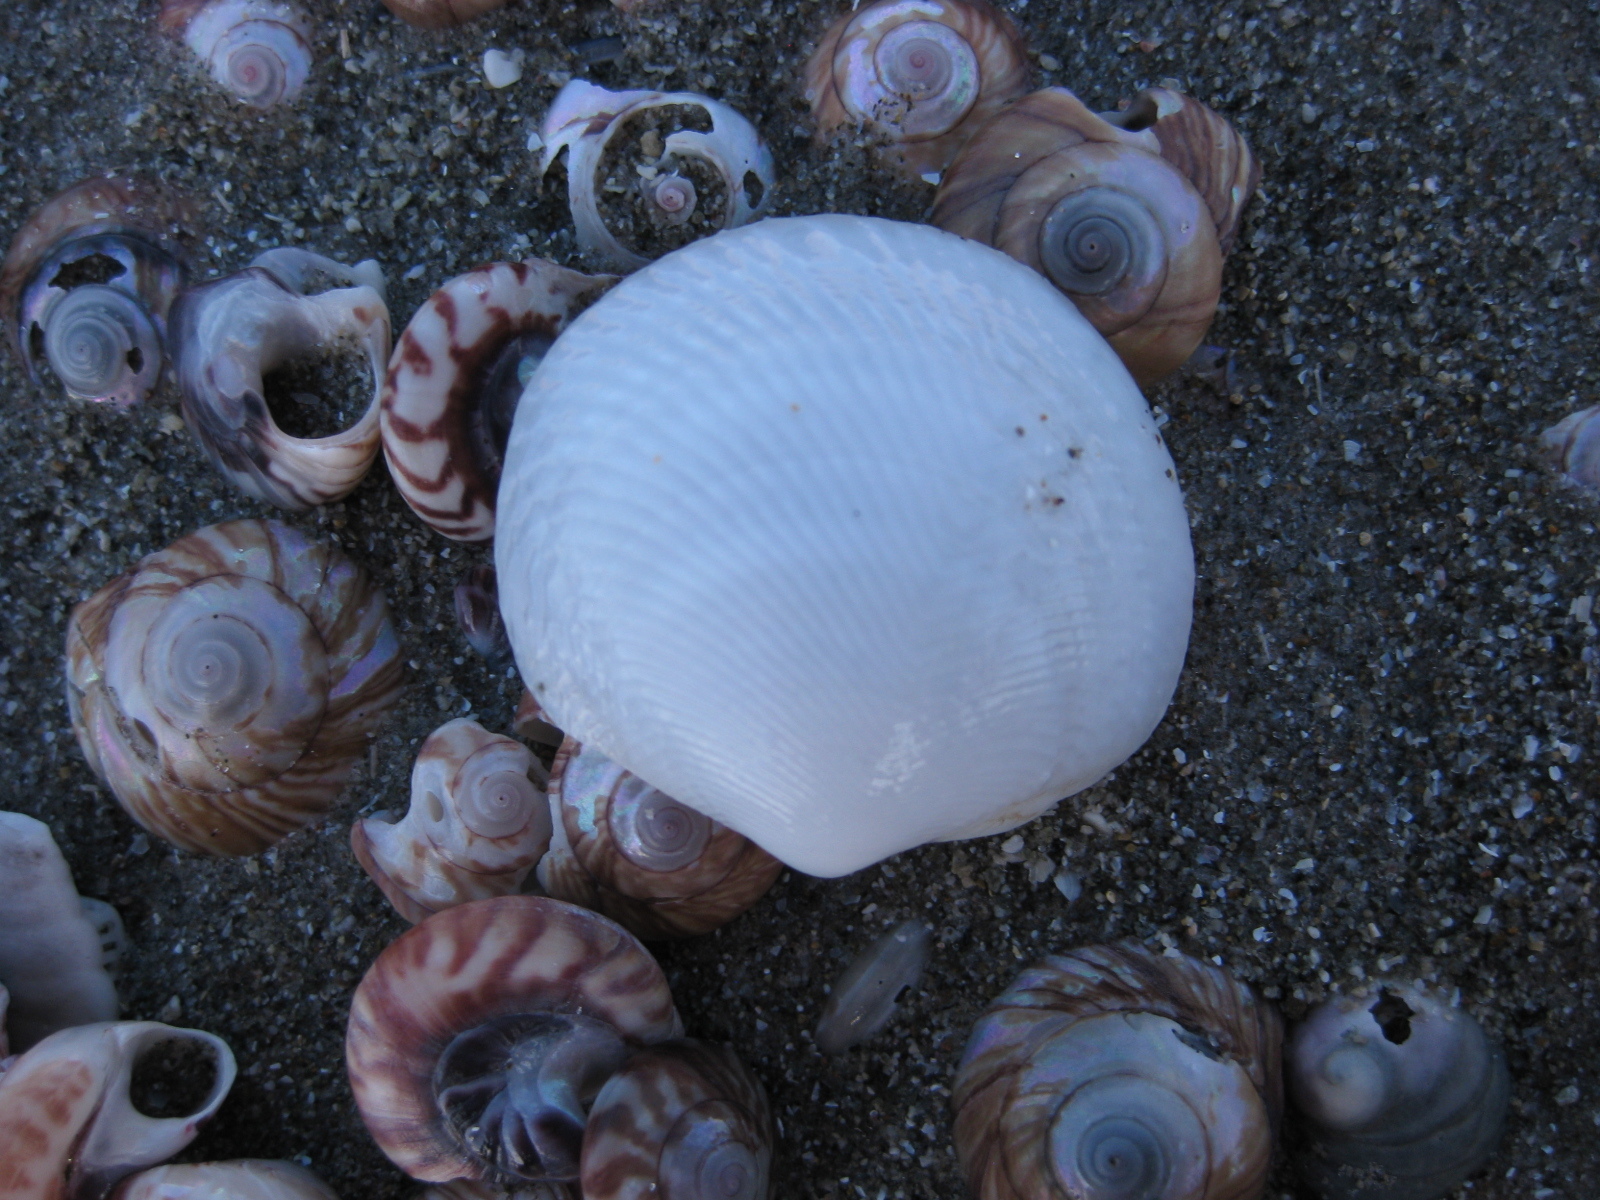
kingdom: Animalia
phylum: Mollusca
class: Bivalvia
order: Lucinida
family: Lucinidae
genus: Divalucina
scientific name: Divalucina cumingi
